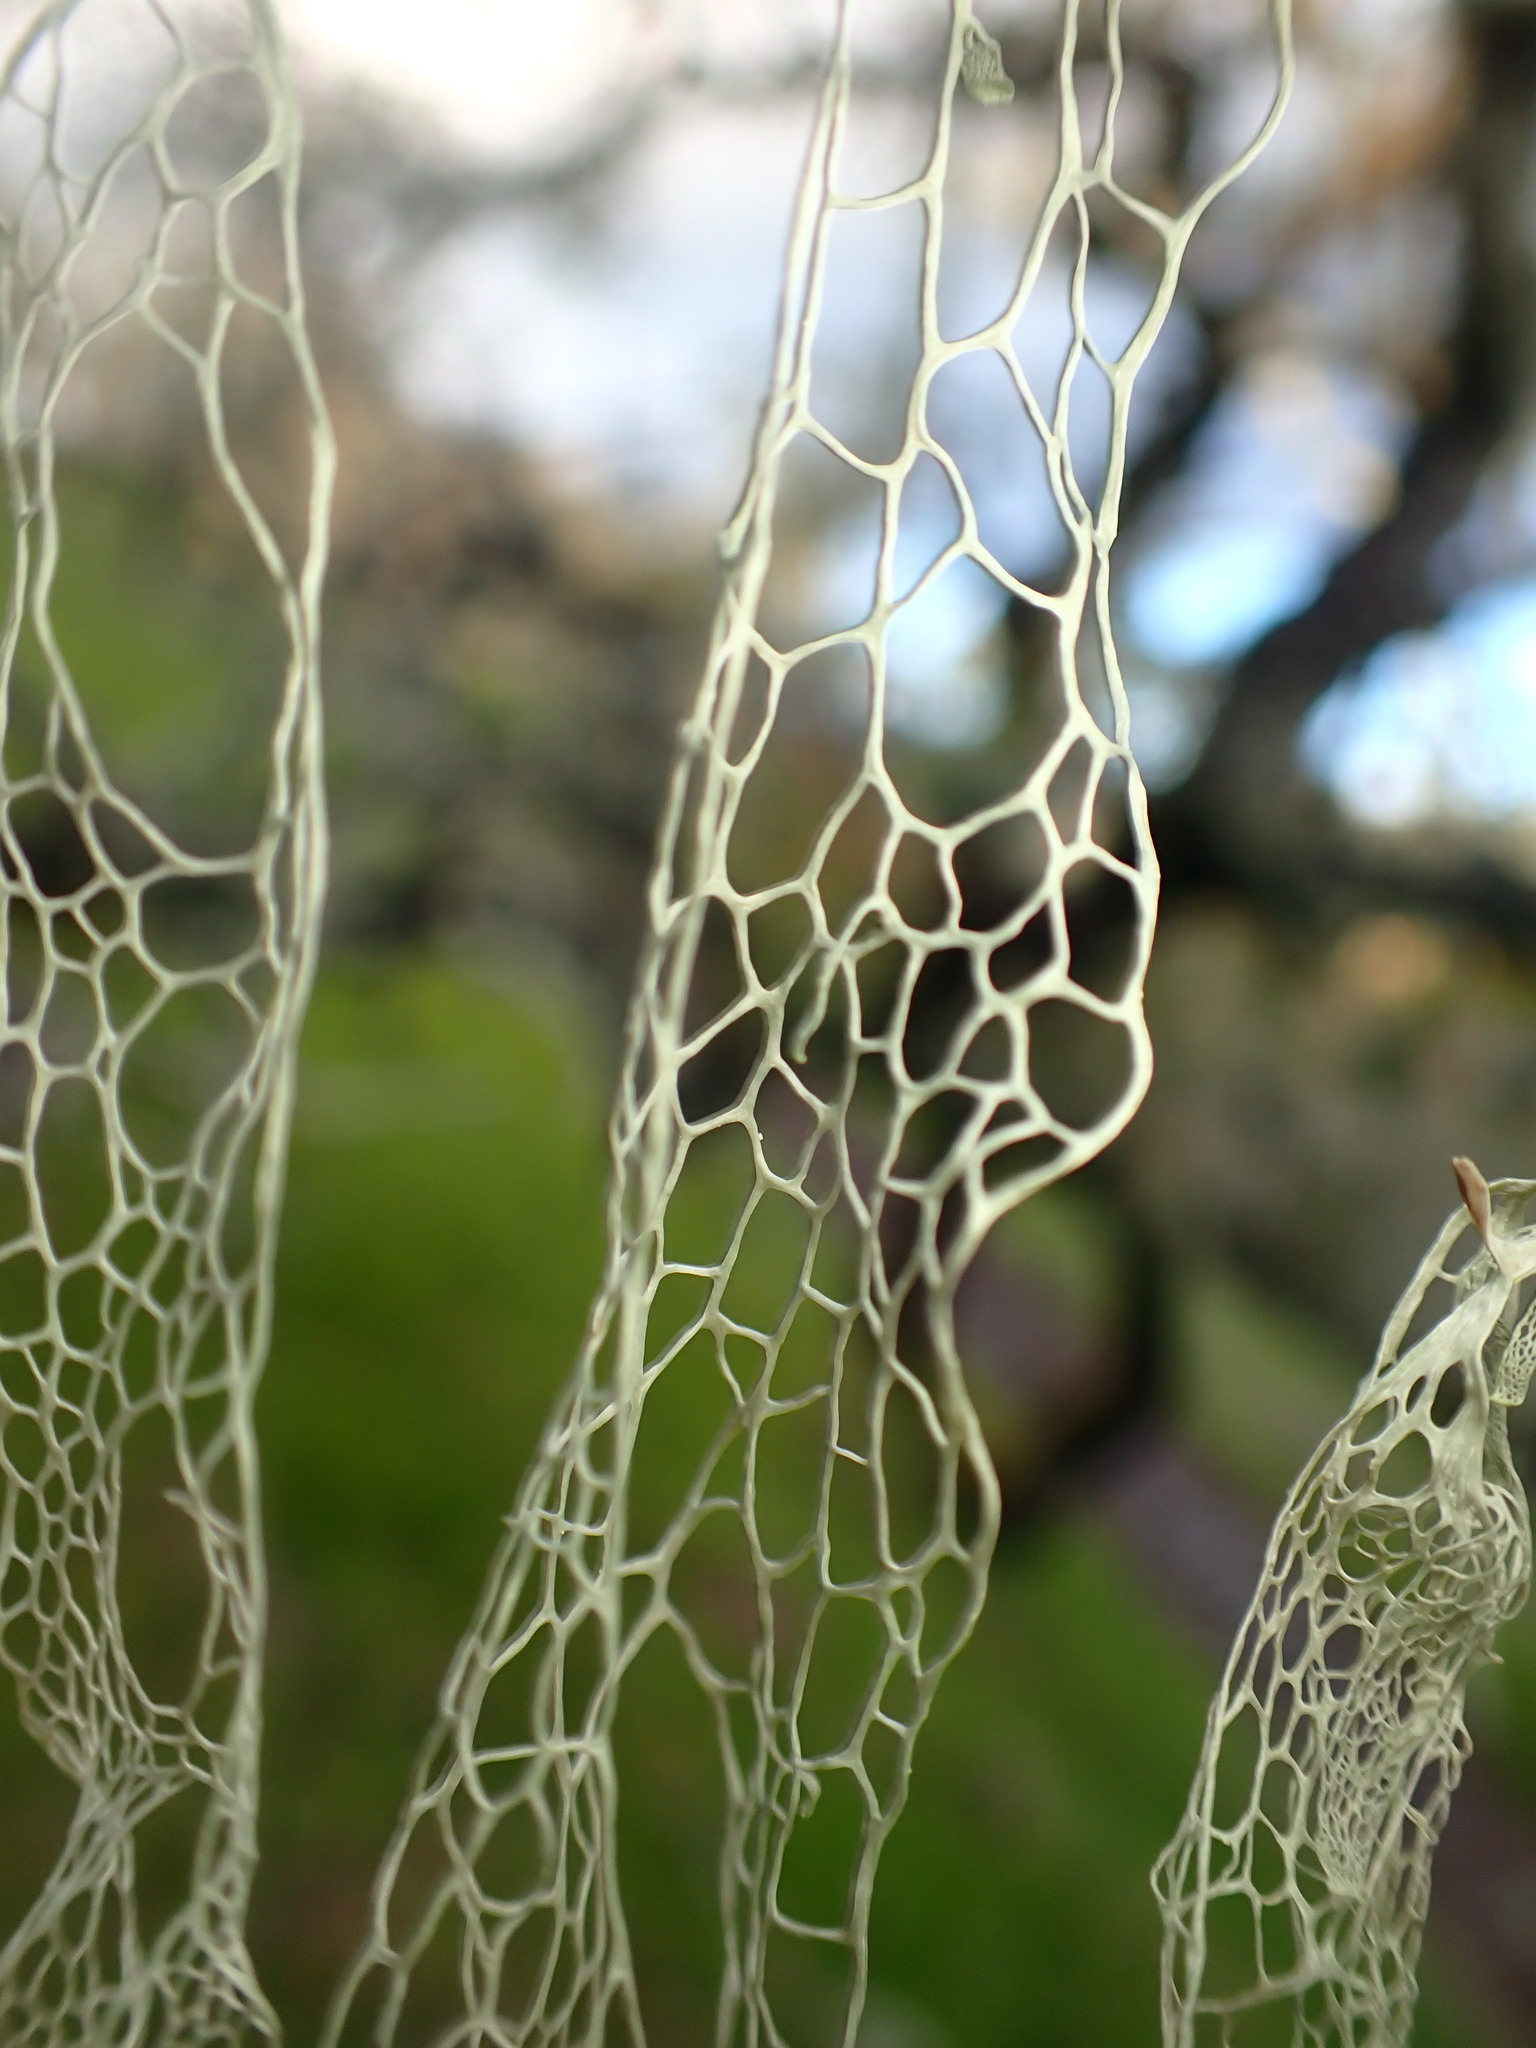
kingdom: Fungi
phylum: Ascomycota
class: Lecanoromycetes
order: Lecanorales
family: Ramalinaceae
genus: Ramalina
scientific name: Ramalina menziesii
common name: Lace lichen
